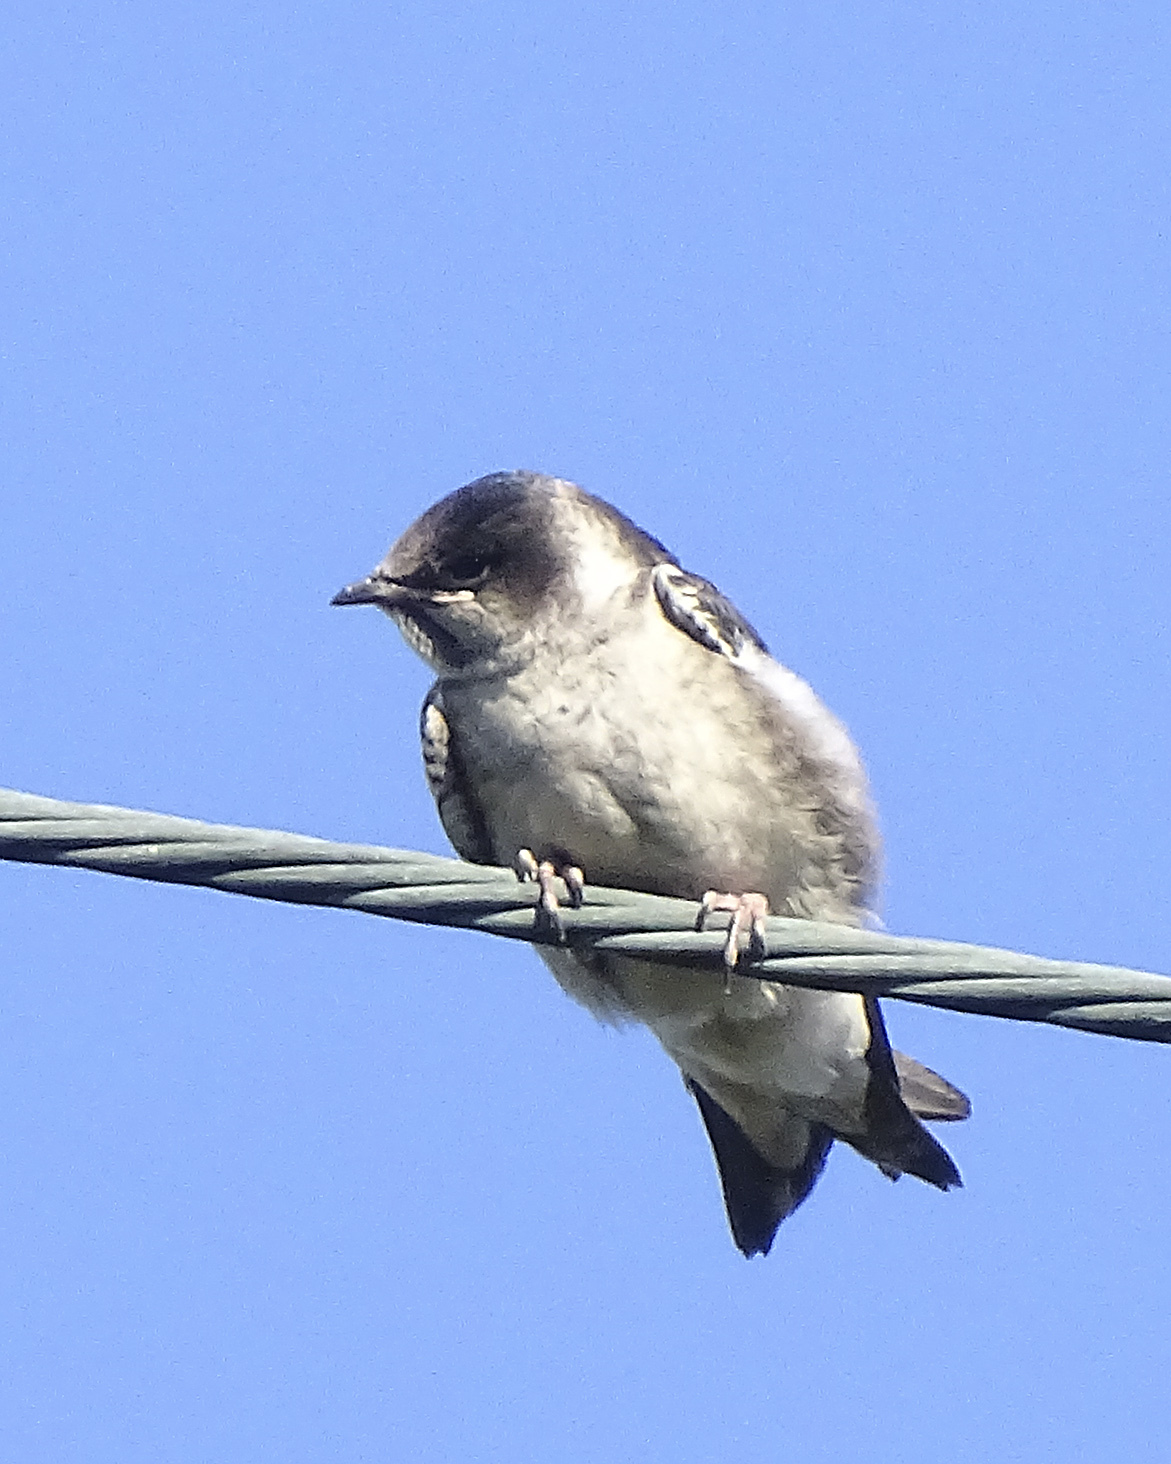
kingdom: Animalia
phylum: Chordata
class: Aves
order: Passeriformes
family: Hirundinidae
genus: Progne
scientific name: Progne subis
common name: Purple martin
